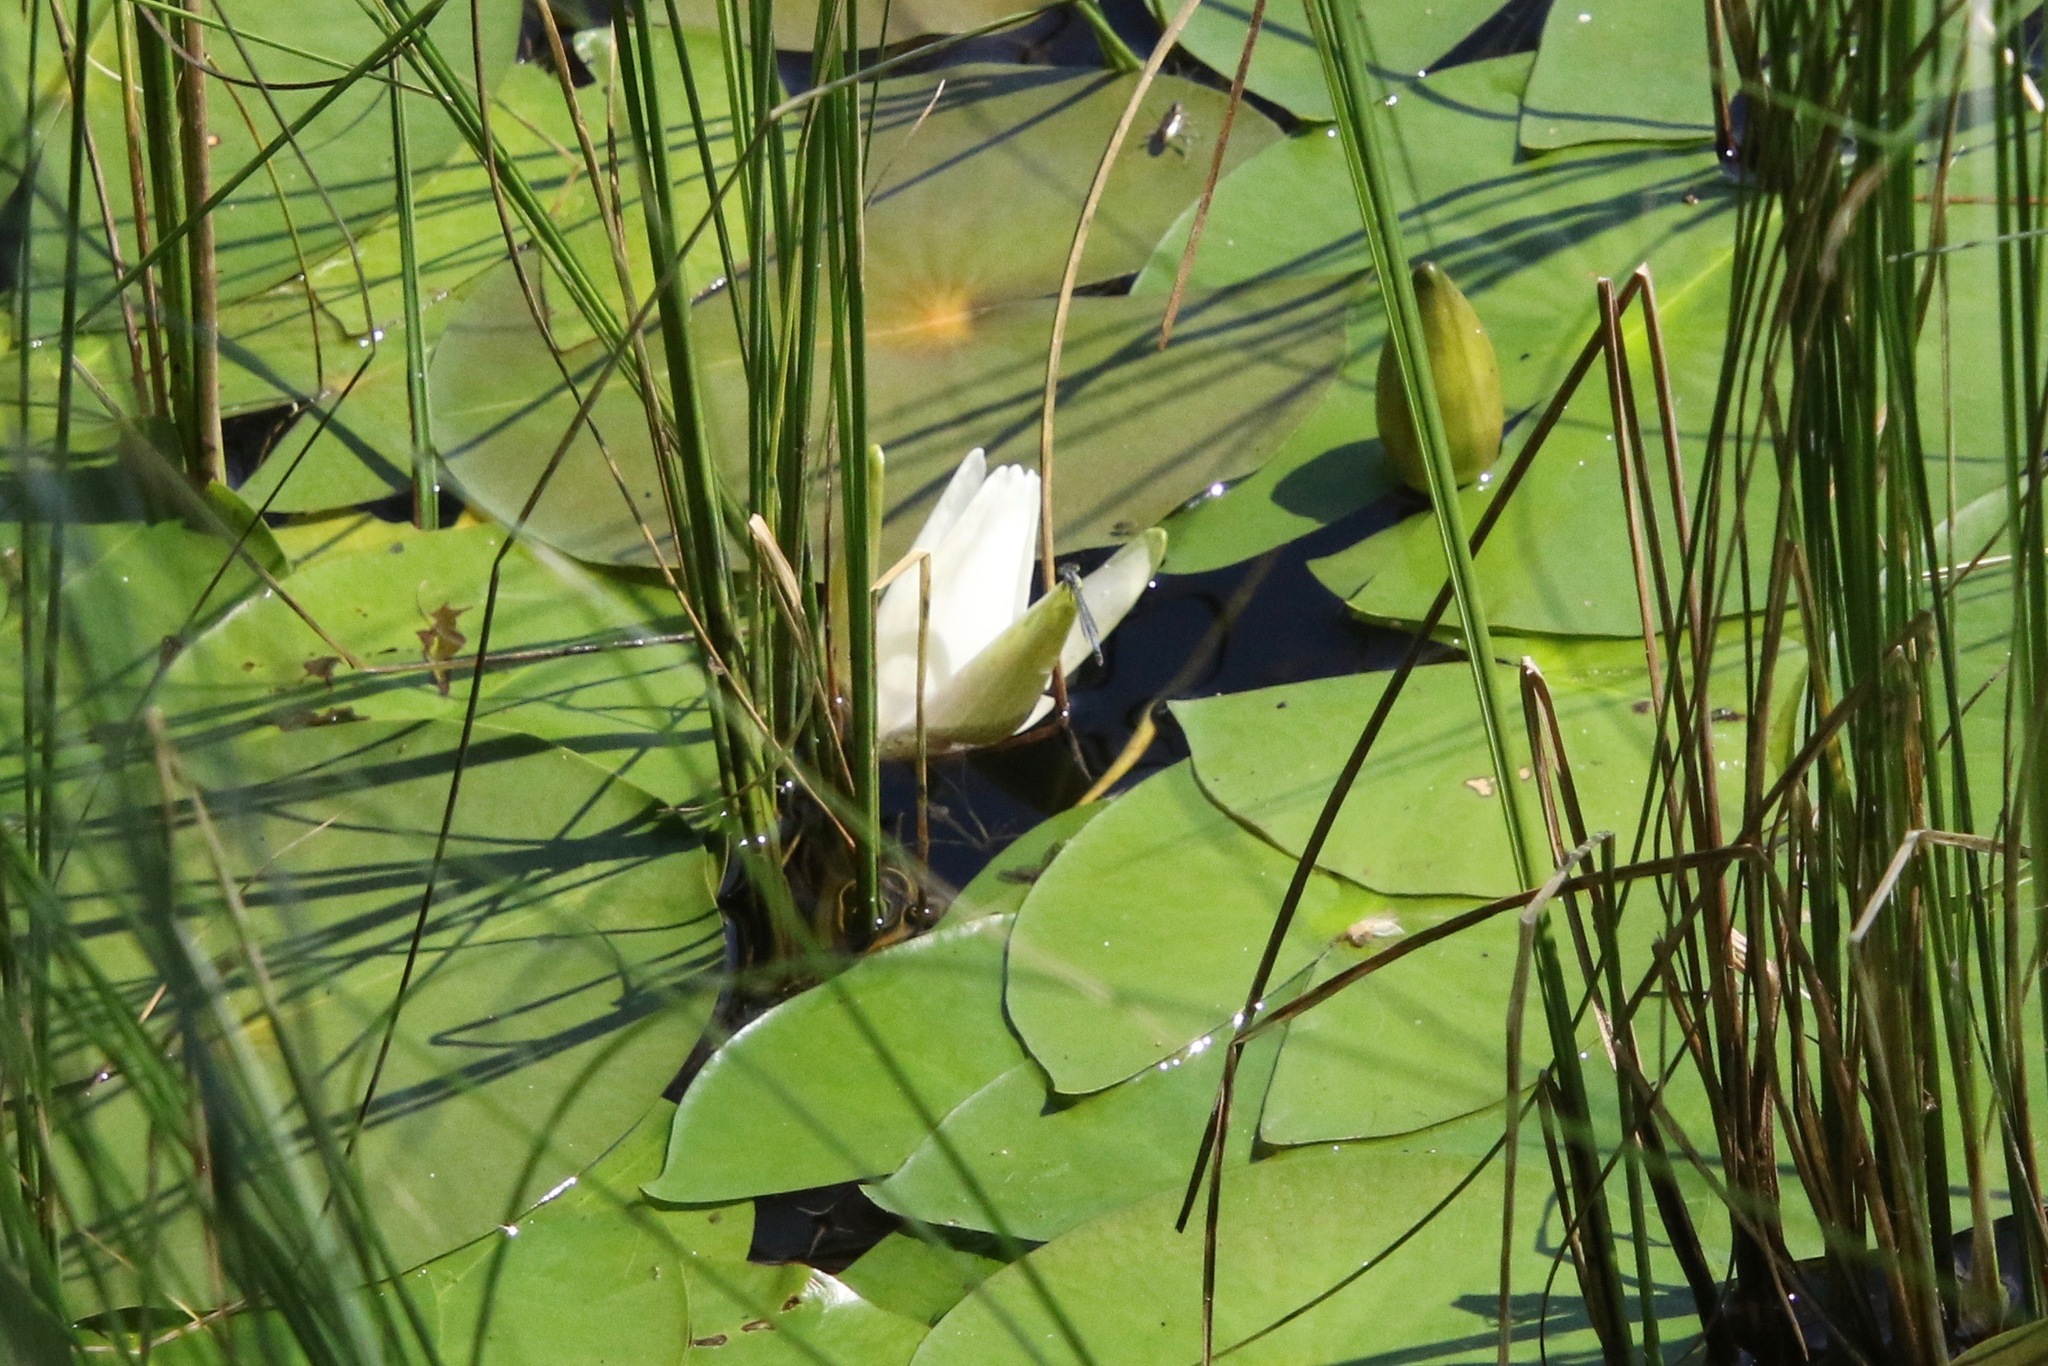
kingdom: Plantae
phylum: Tracheophyta
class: Magnoliopsida
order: Nymphaeales
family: Nymphaeaceae
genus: Nymphaea
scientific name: Nymphaea odorata
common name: Fragrant water-lily
